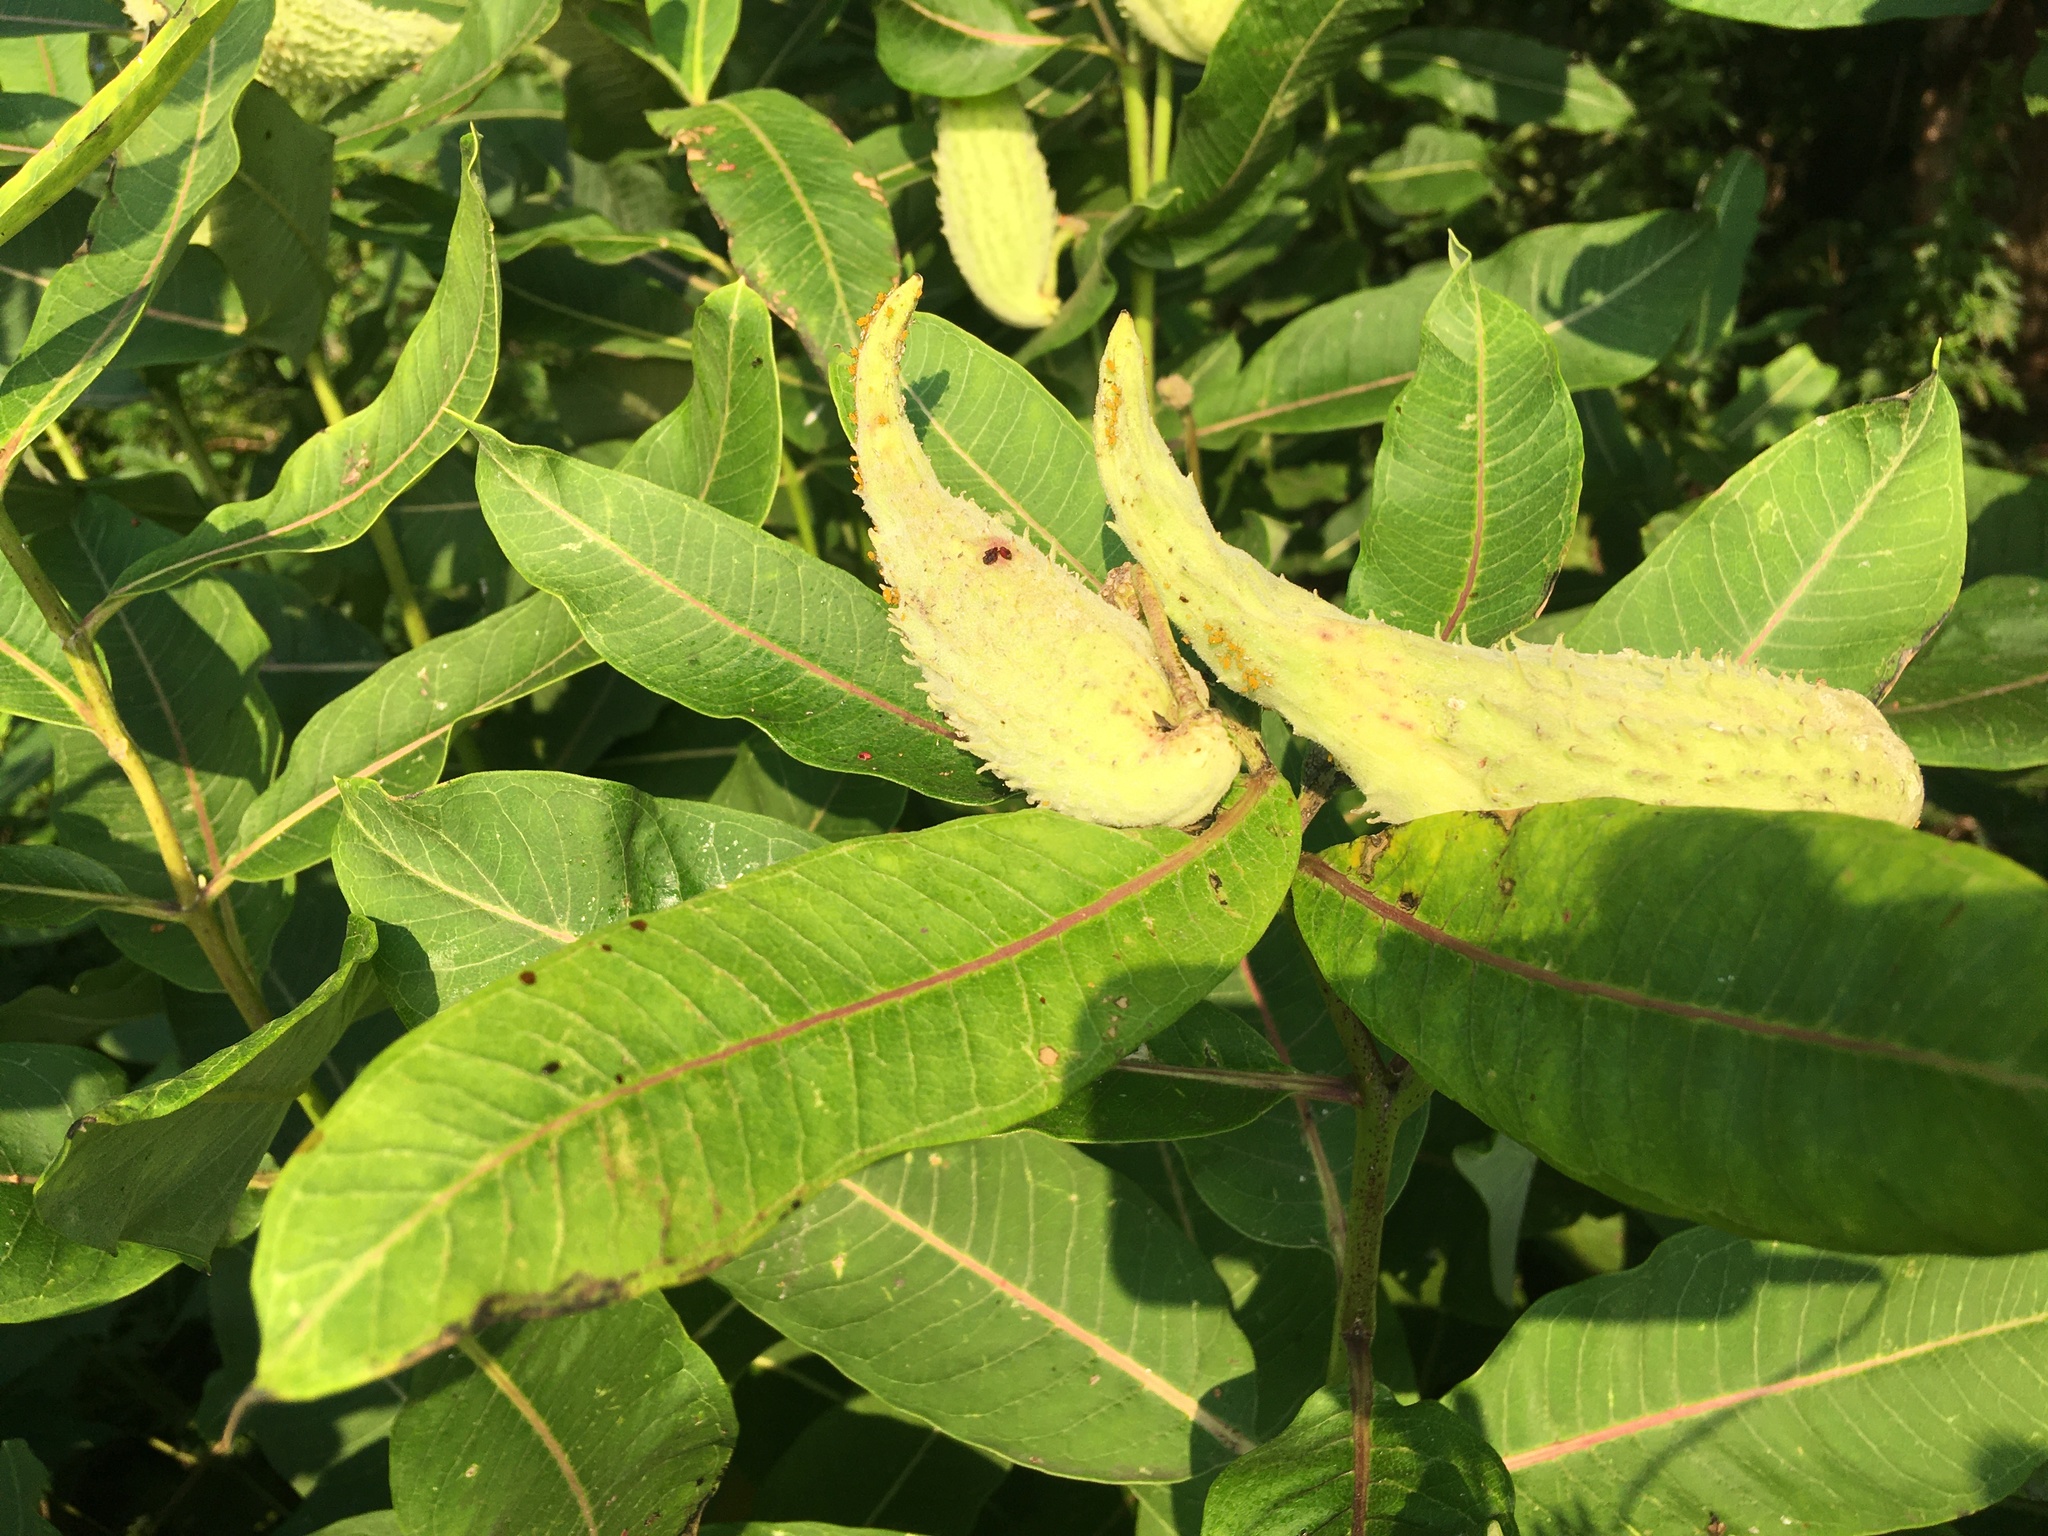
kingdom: Plantae
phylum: Tracheophyta
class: Magnoliopsida
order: Gentianales
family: Apocynaceae
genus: Asclepias
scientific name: Asclepias syriaca
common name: Common milkweed
